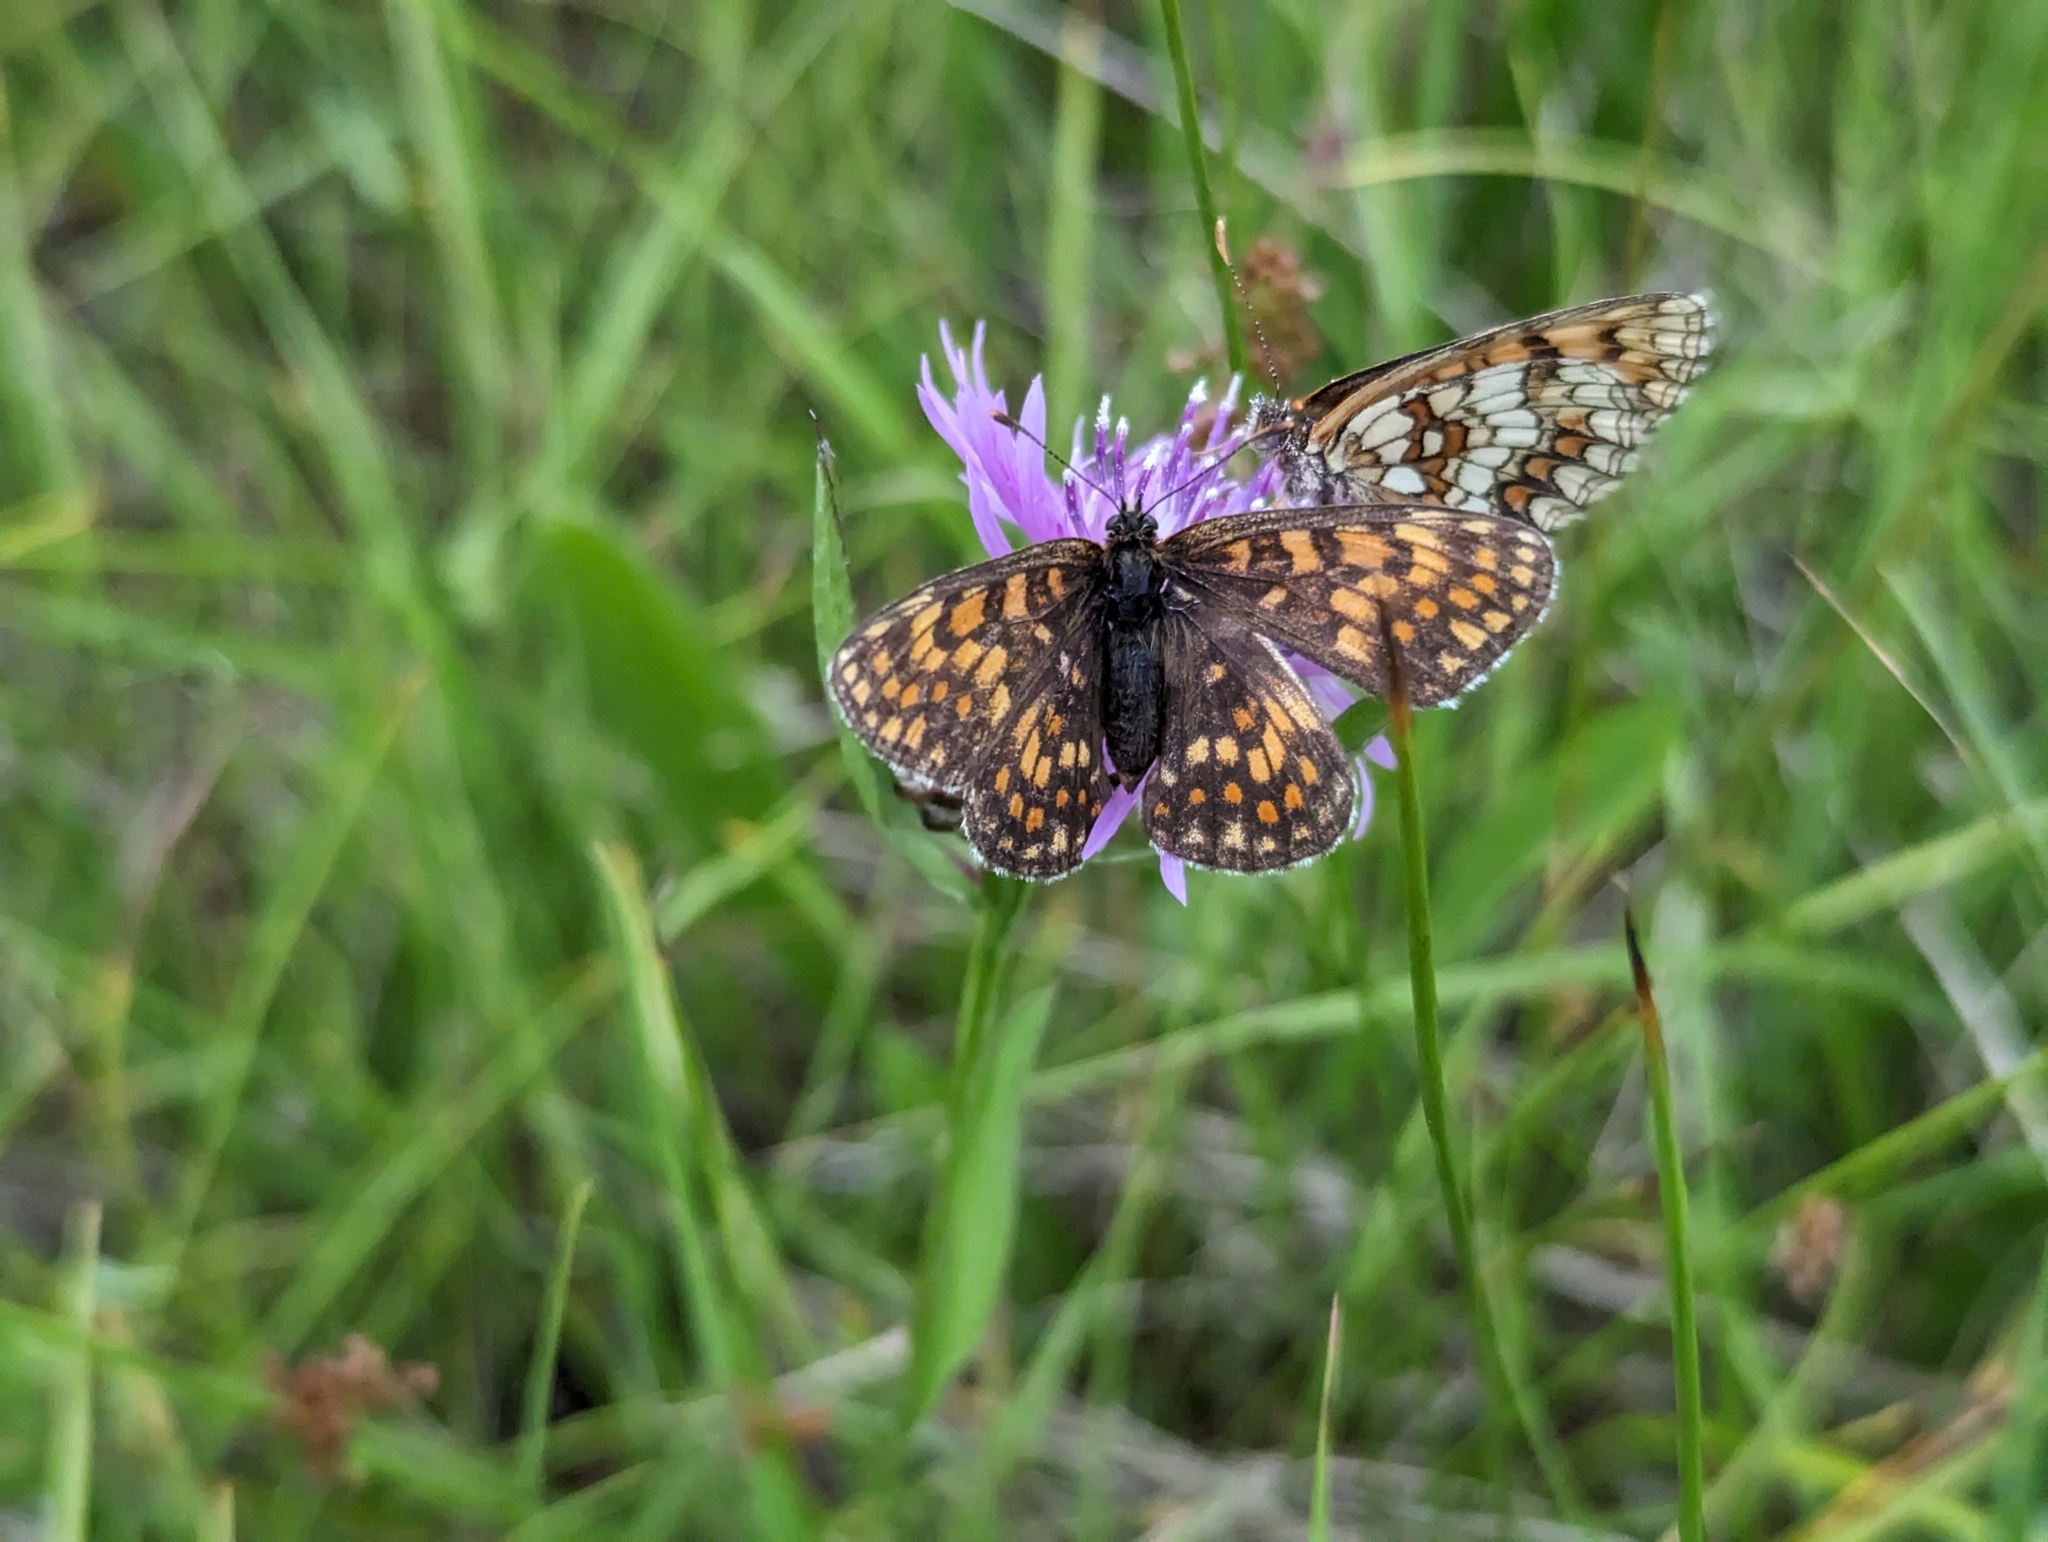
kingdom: Animalia
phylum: Arthropoda
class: Insecta
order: Lepidoptera
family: Nymphalidae
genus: Melitaea
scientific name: Melitaea athalia
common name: Heath fritillary
